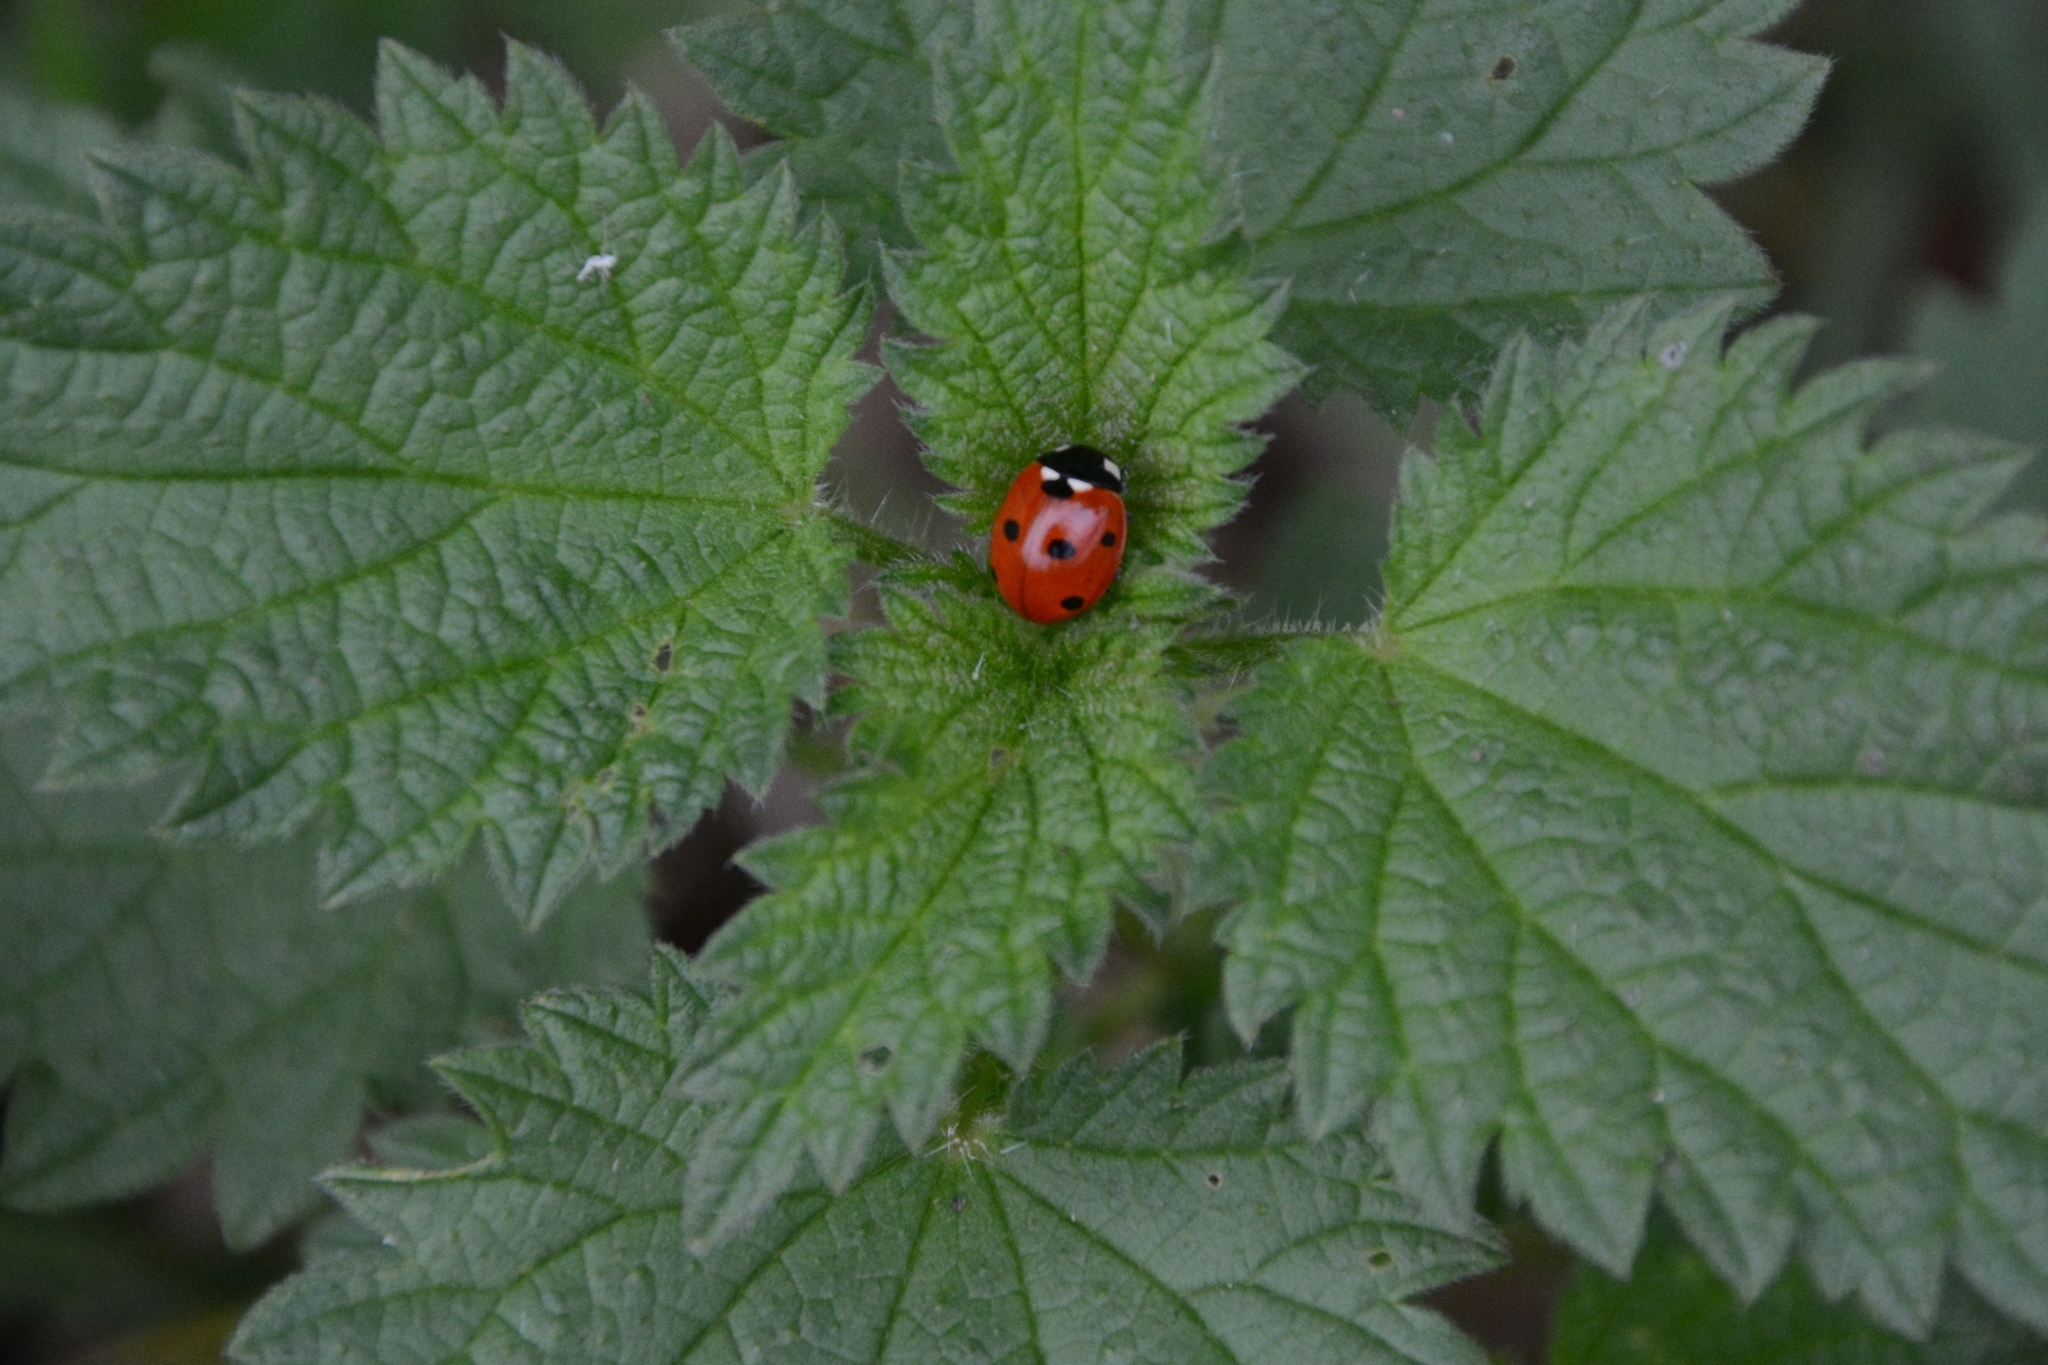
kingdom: Animalia
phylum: Arthropoda
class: Insecta
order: Coleoptera
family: Coccinellidae
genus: Coccinella
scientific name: Coccinella septempunctata
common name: Sevenspotted lady beetle
